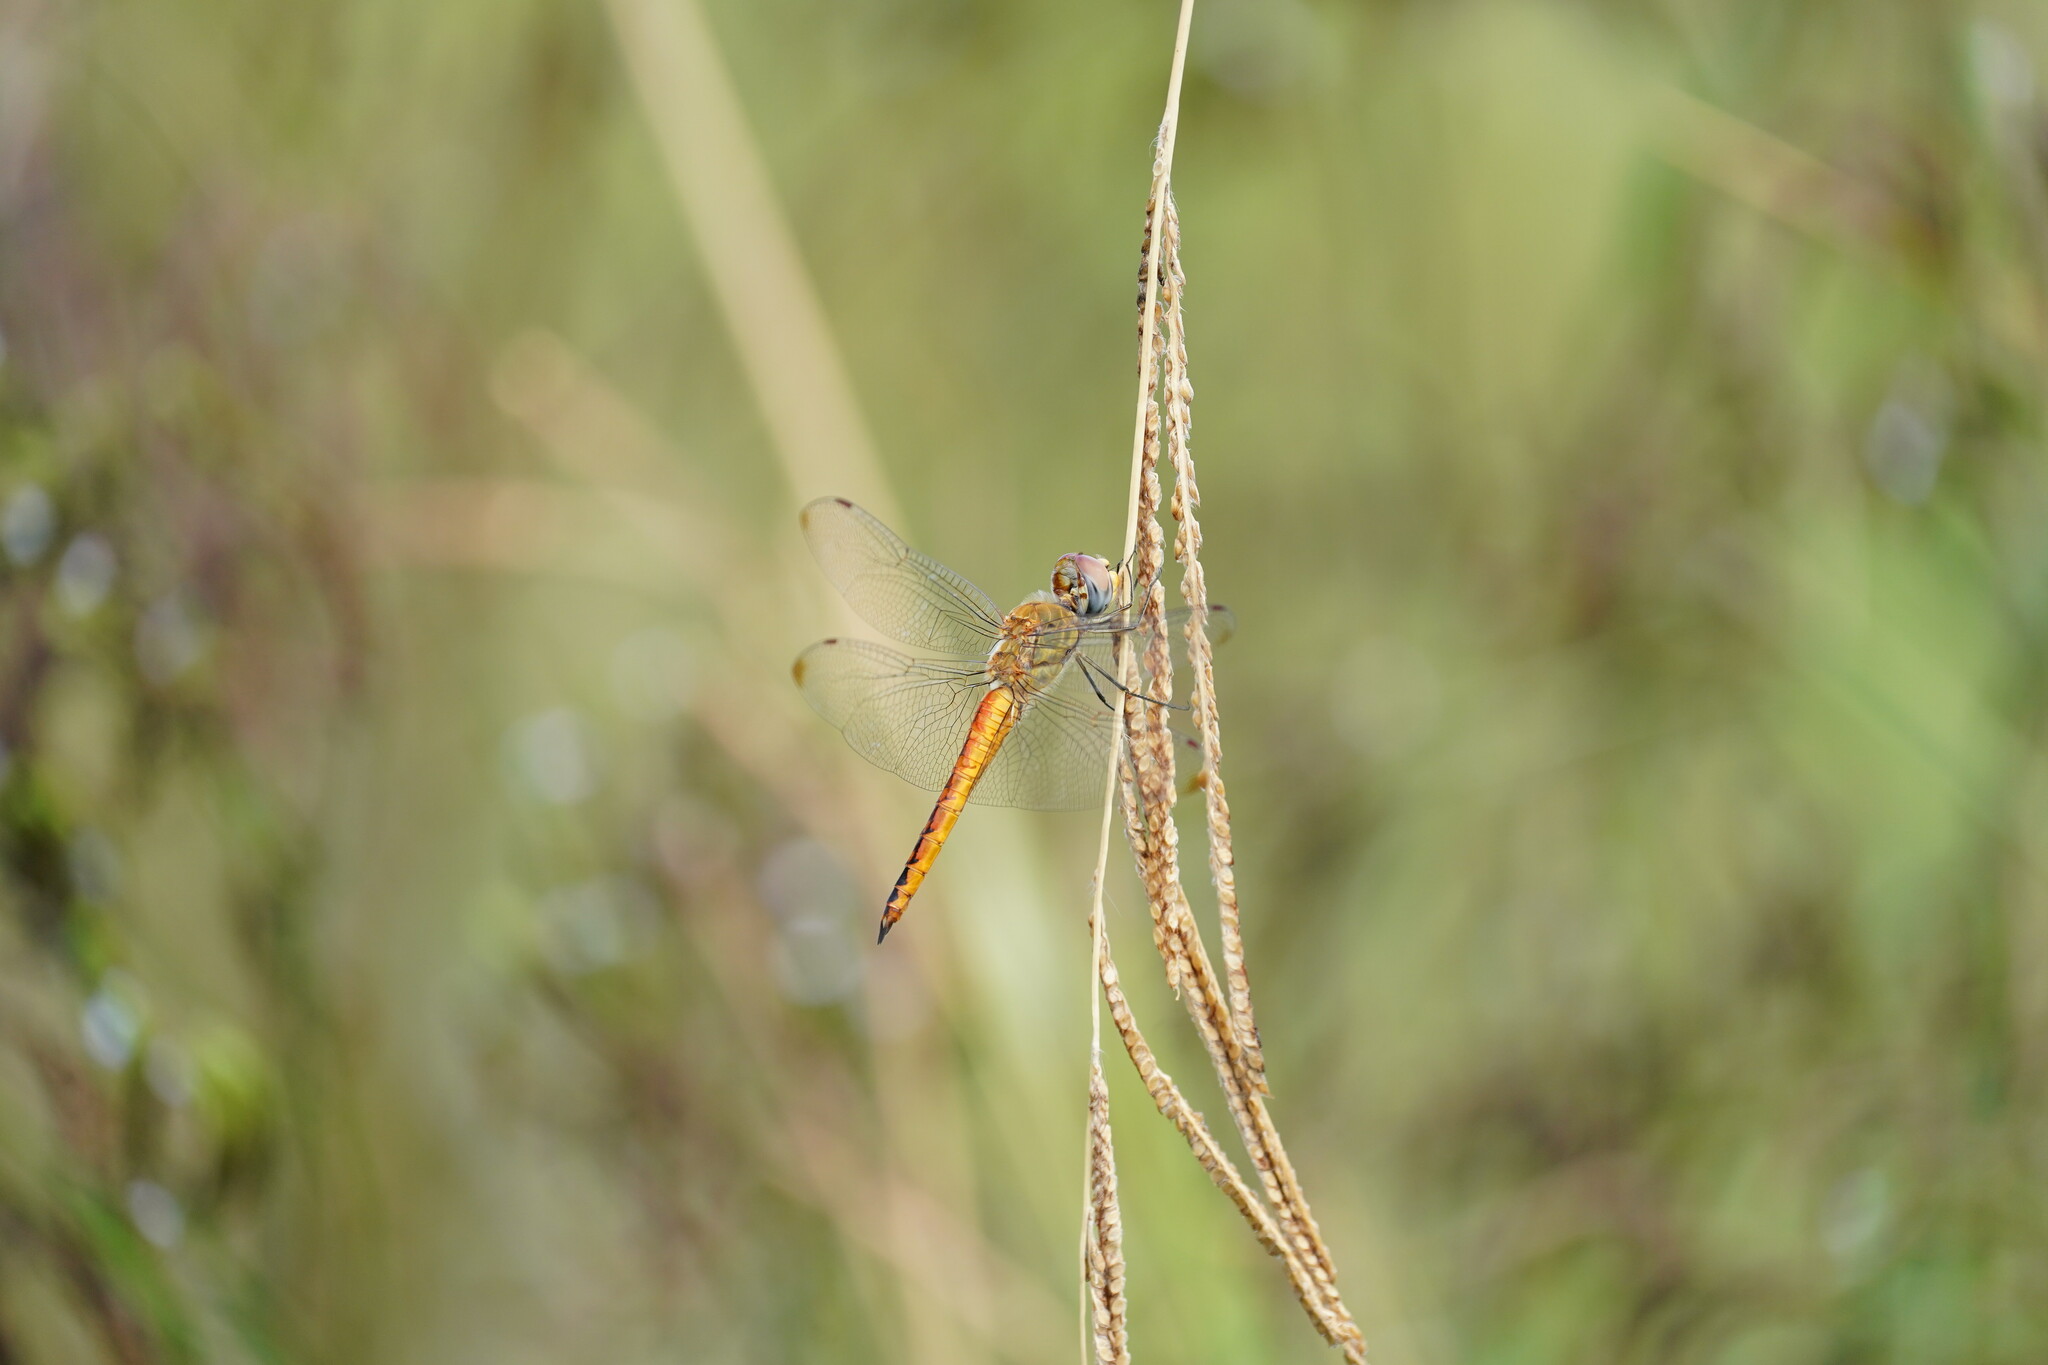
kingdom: Animalia
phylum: Arthropoda
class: Insecta
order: Odonata
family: Libellulidae
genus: Pantala
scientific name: Pantala flavescens
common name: Wandering glider
